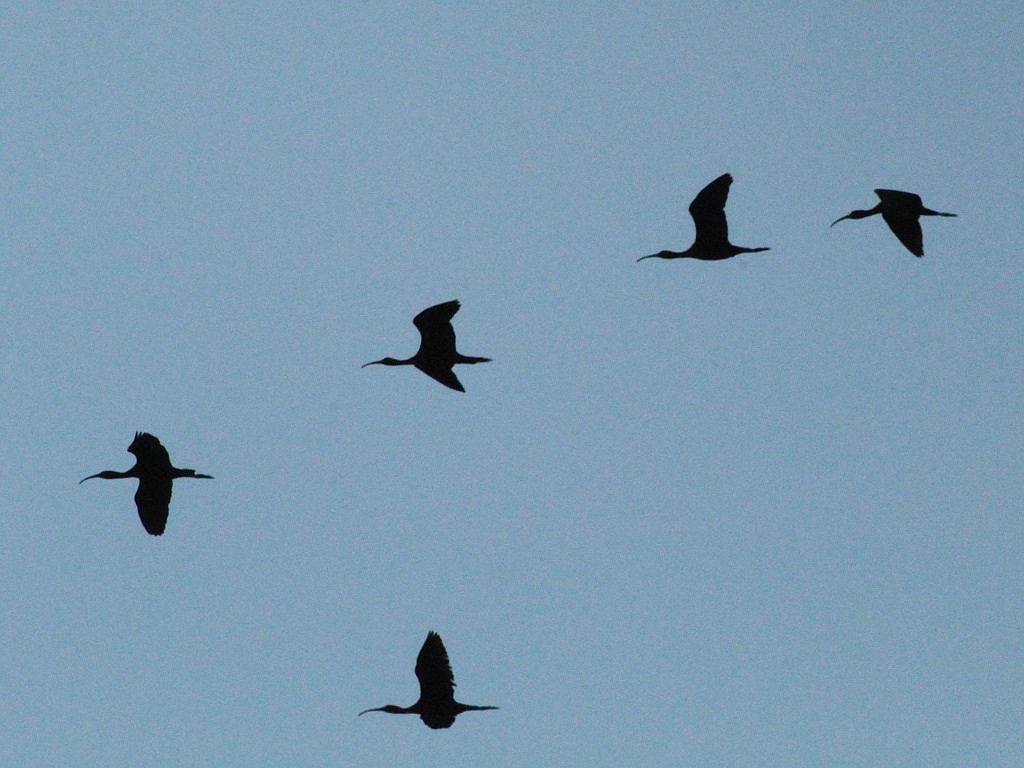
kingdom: Animalia
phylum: Chordata
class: Aves
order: Pelecaniformes
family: Threskiornithidae
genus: Plegadis
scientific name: Plegadis falcinellus
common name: Glossy ibis
